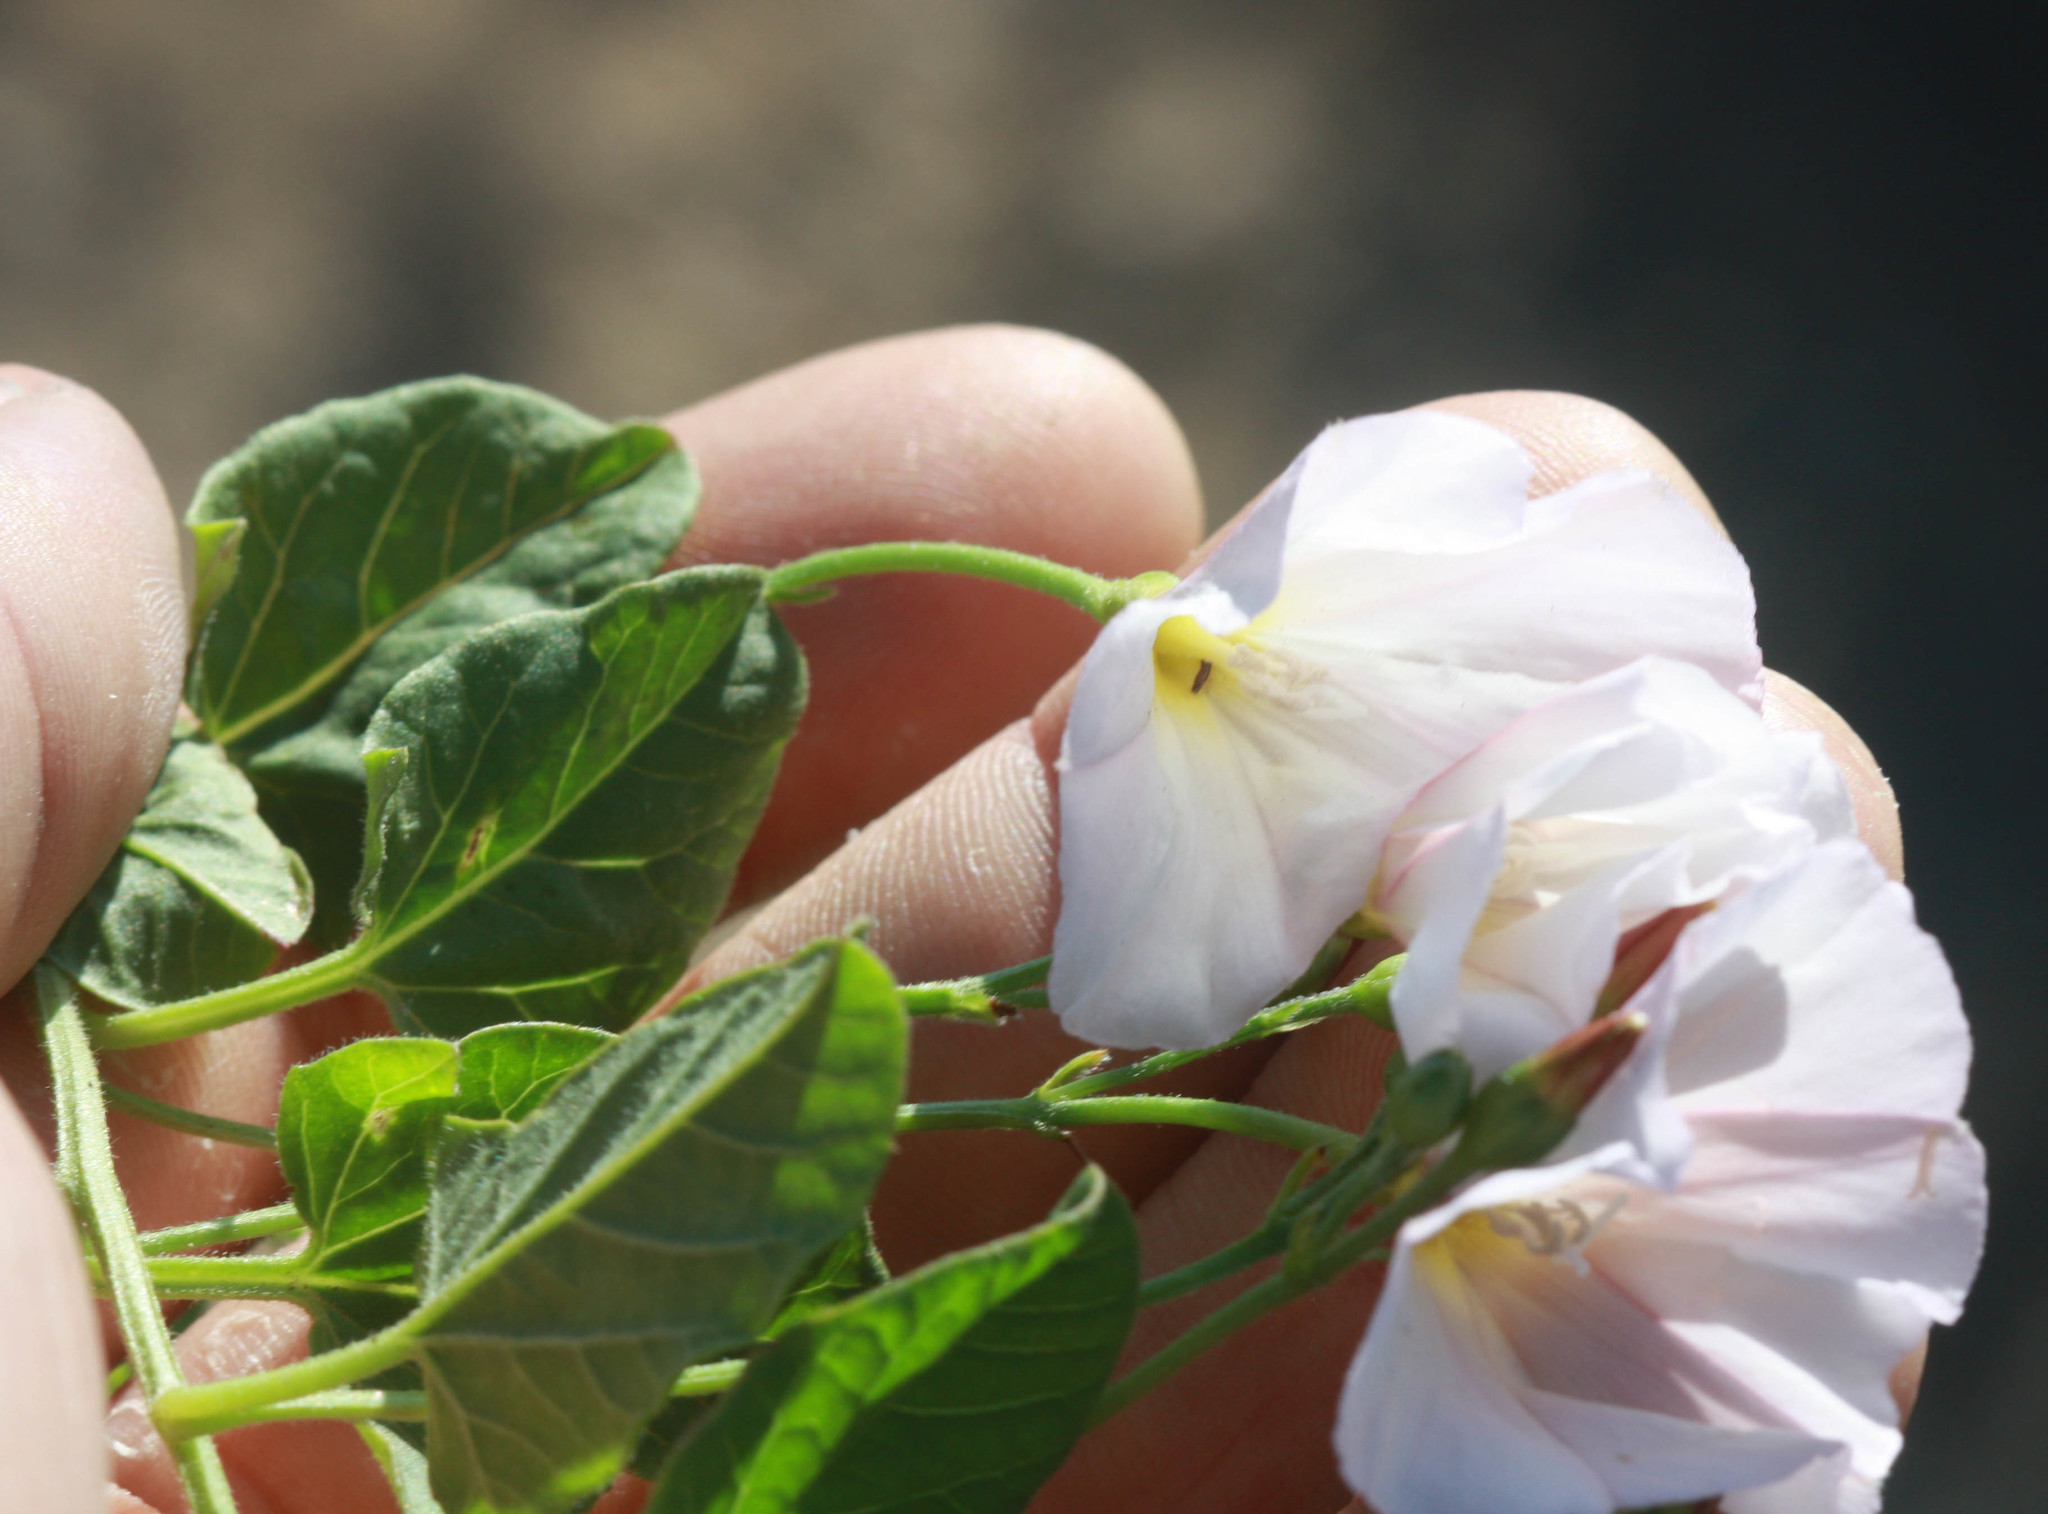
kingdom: Plantae
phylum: Tracheophyta
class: Magnoliopsida
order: Solanales
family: Convolvulaceae
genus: Convolvulus
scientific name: Convolvulus arvensis
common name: Field bindweed
